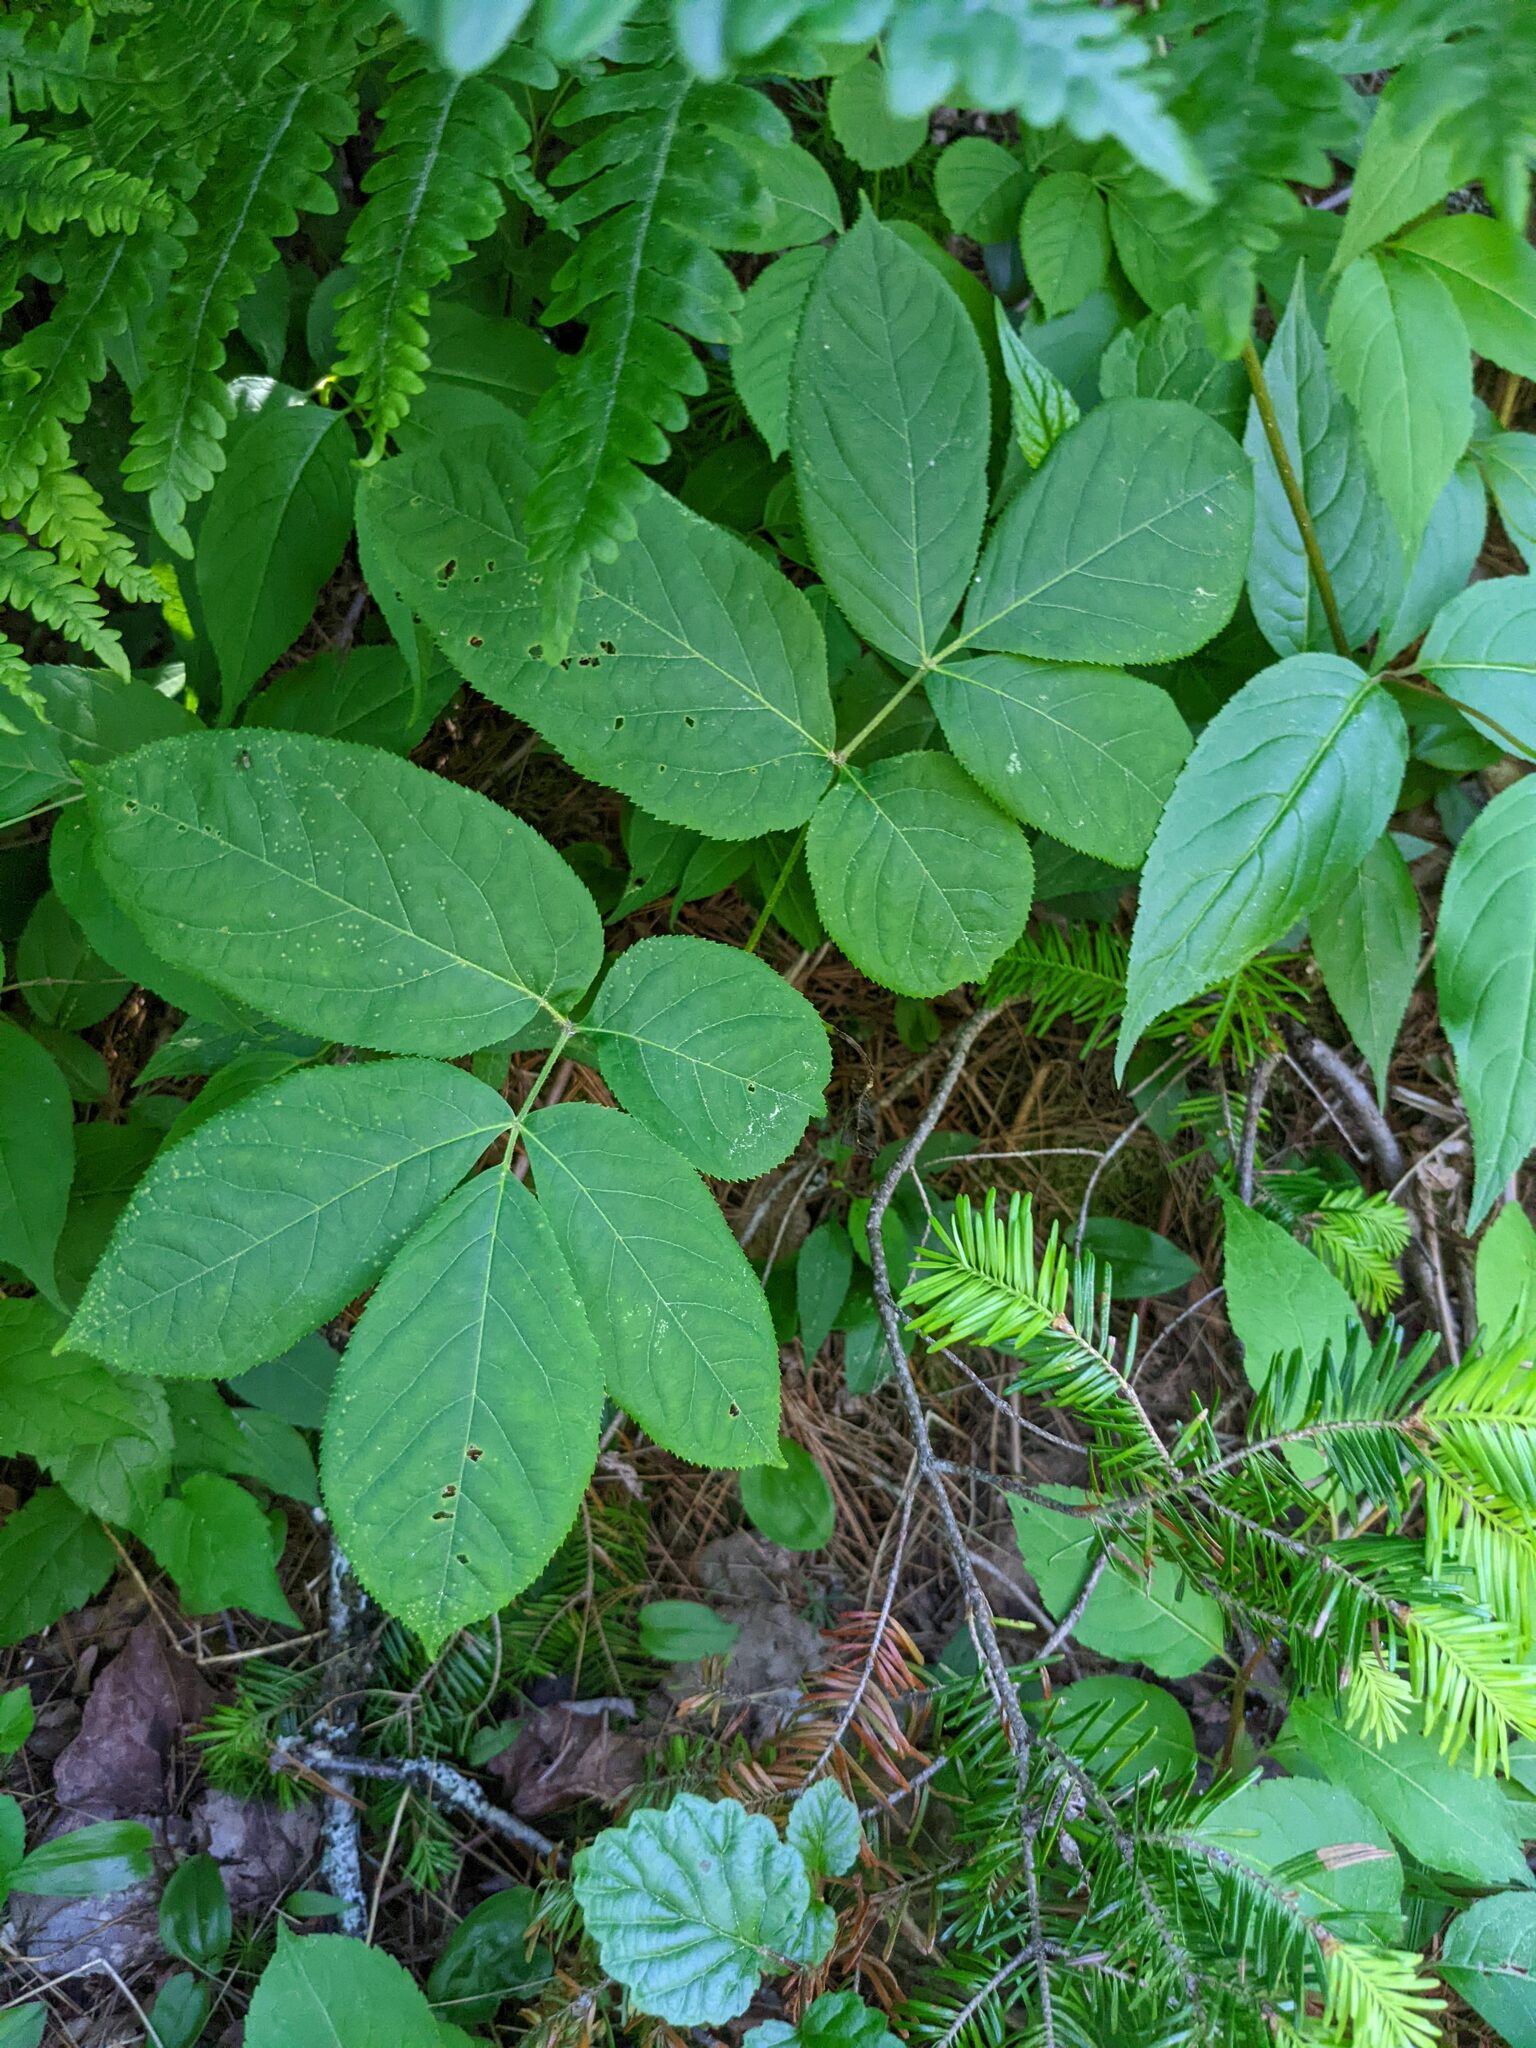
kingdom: Plantae
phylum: Tracheophyta
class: Magnoliopsida
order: Apiales
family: Araliaceae
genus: Aralia
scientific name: Aralia nudicaulis
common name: Wild sarsaparilla
